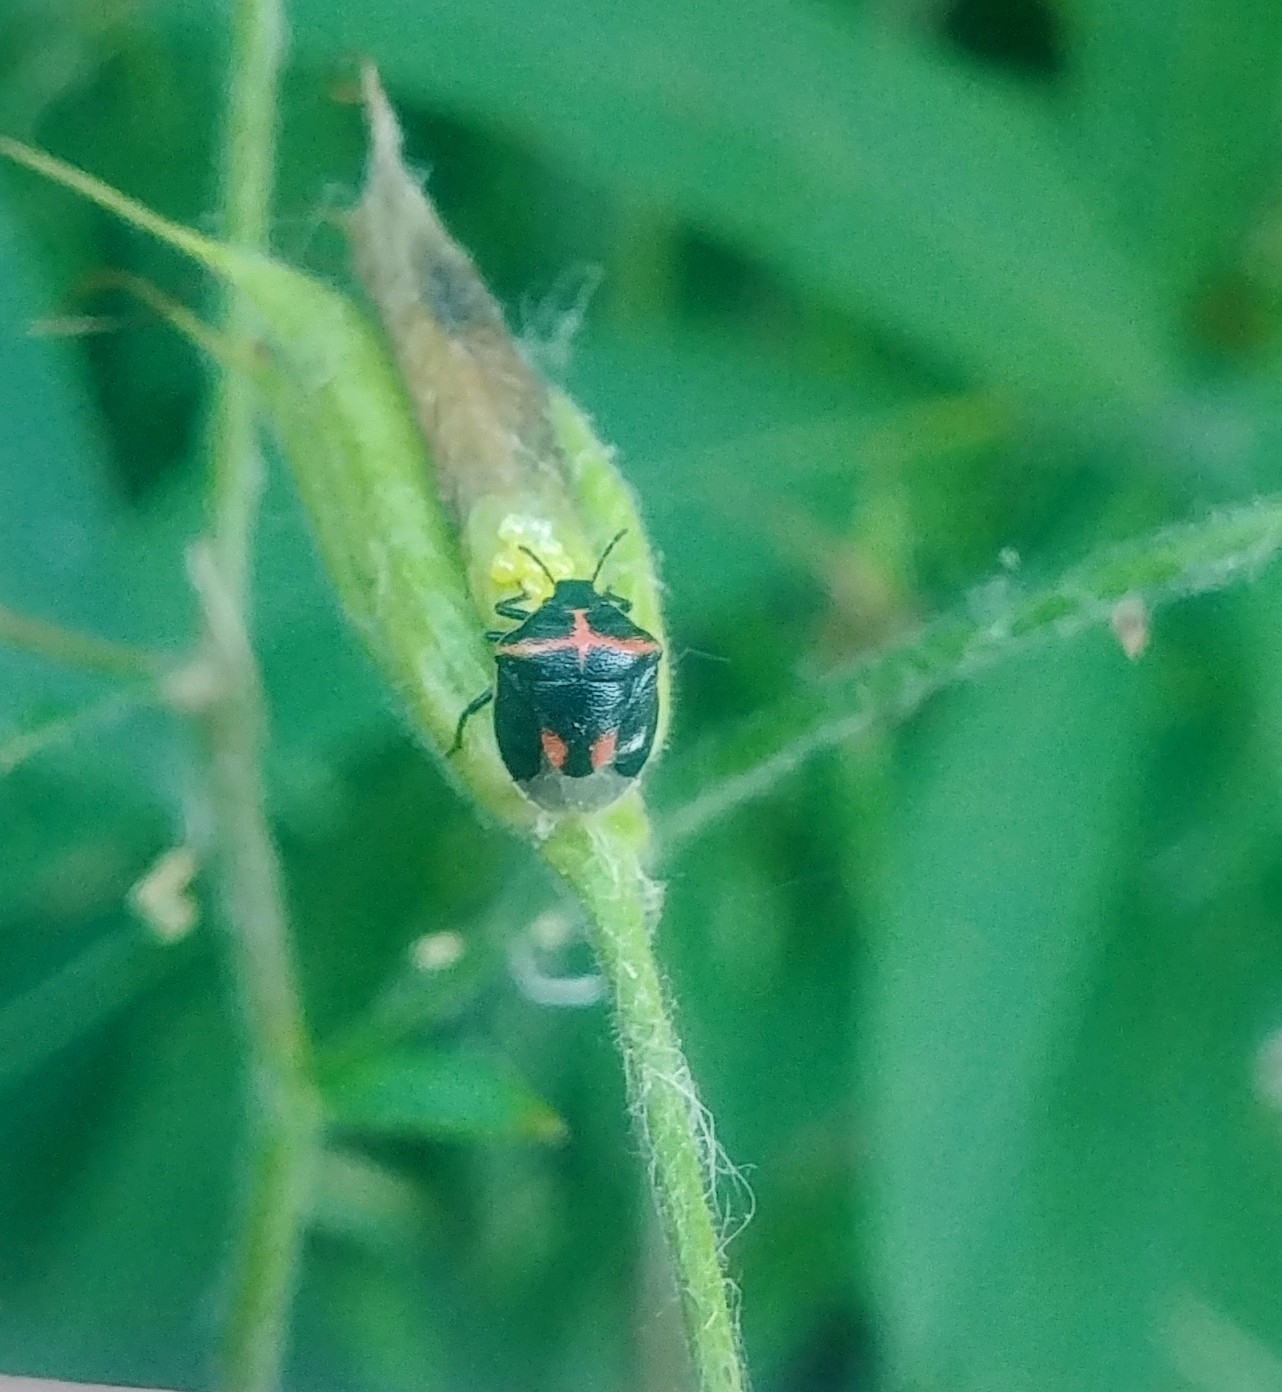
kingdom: Animalia
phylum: Arthropoda
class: Insecta
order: Hemiptera
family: Pentatomidae
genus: Cosmopepla
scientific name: Cosmopepla lintneriana
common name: Twice-stabbed stink bug
